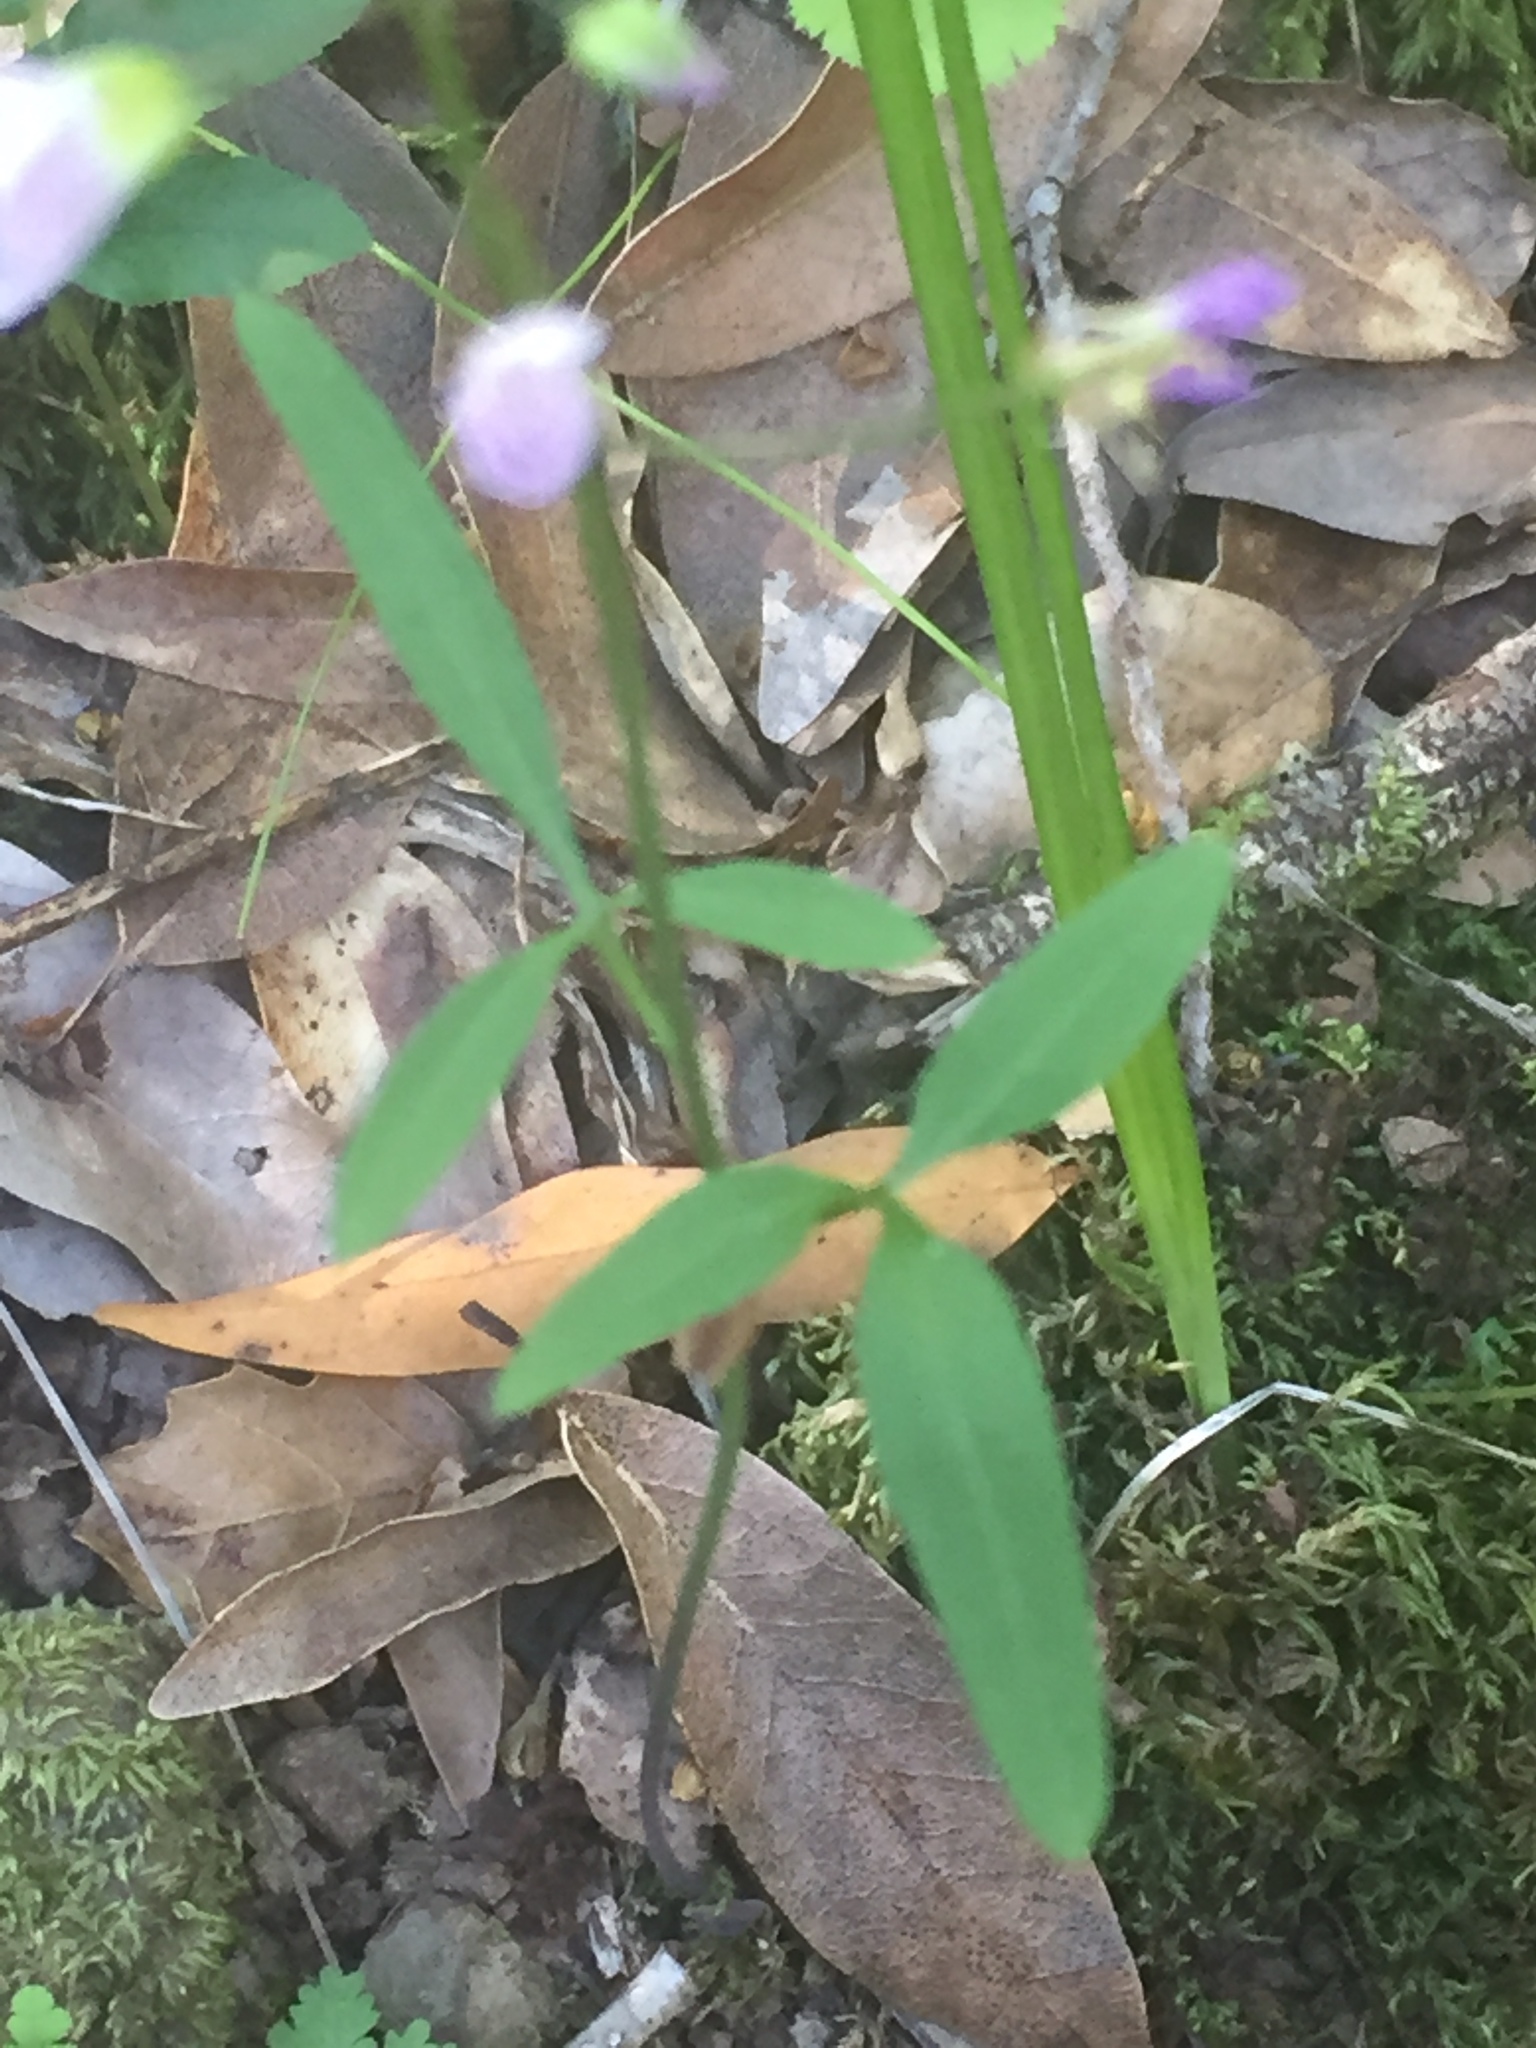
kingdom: Plantae
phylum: Tracheophyta
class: Magnoliopsida
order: Brassicales
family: Brassicaceae
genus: Cardamine
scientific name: Cardamine californica
